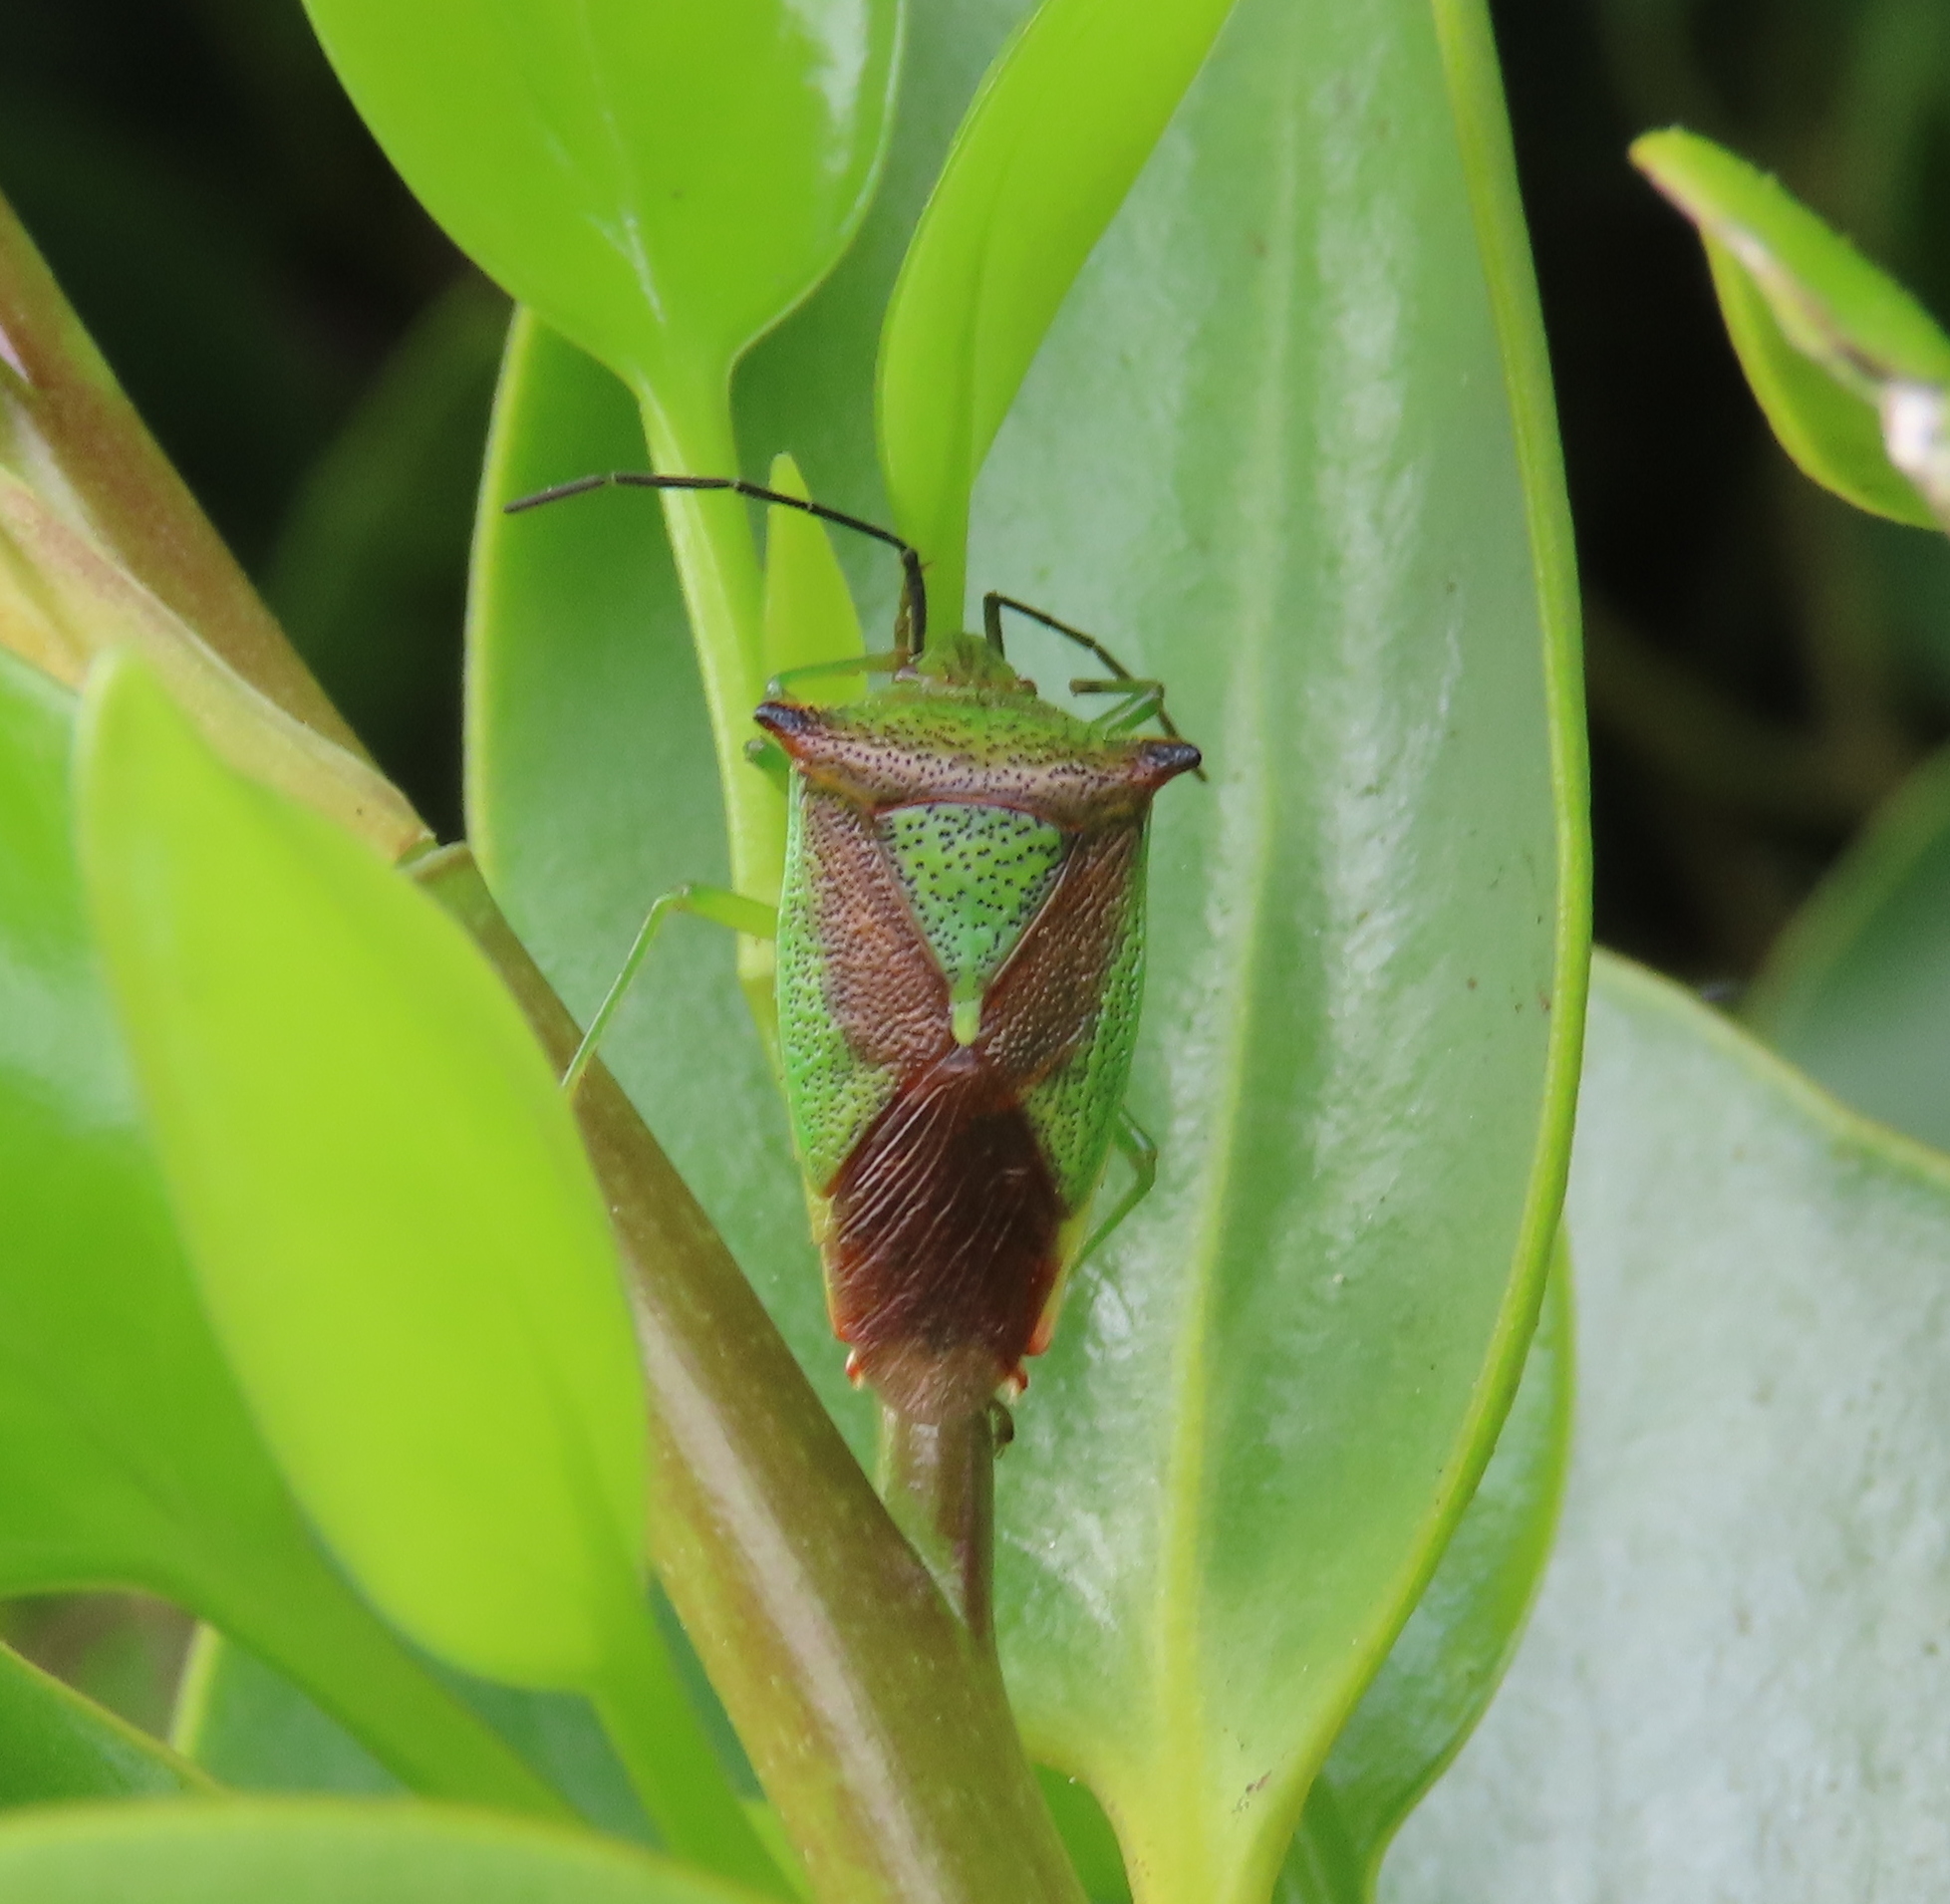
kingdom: Animalia
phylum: Arthropoda
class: Insecta
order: Hemiptera
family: Acanthosomatidae
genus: Acanthosoma
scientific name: Acanthosoma haemorrhoidale
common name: Hawthorn shieldbug
